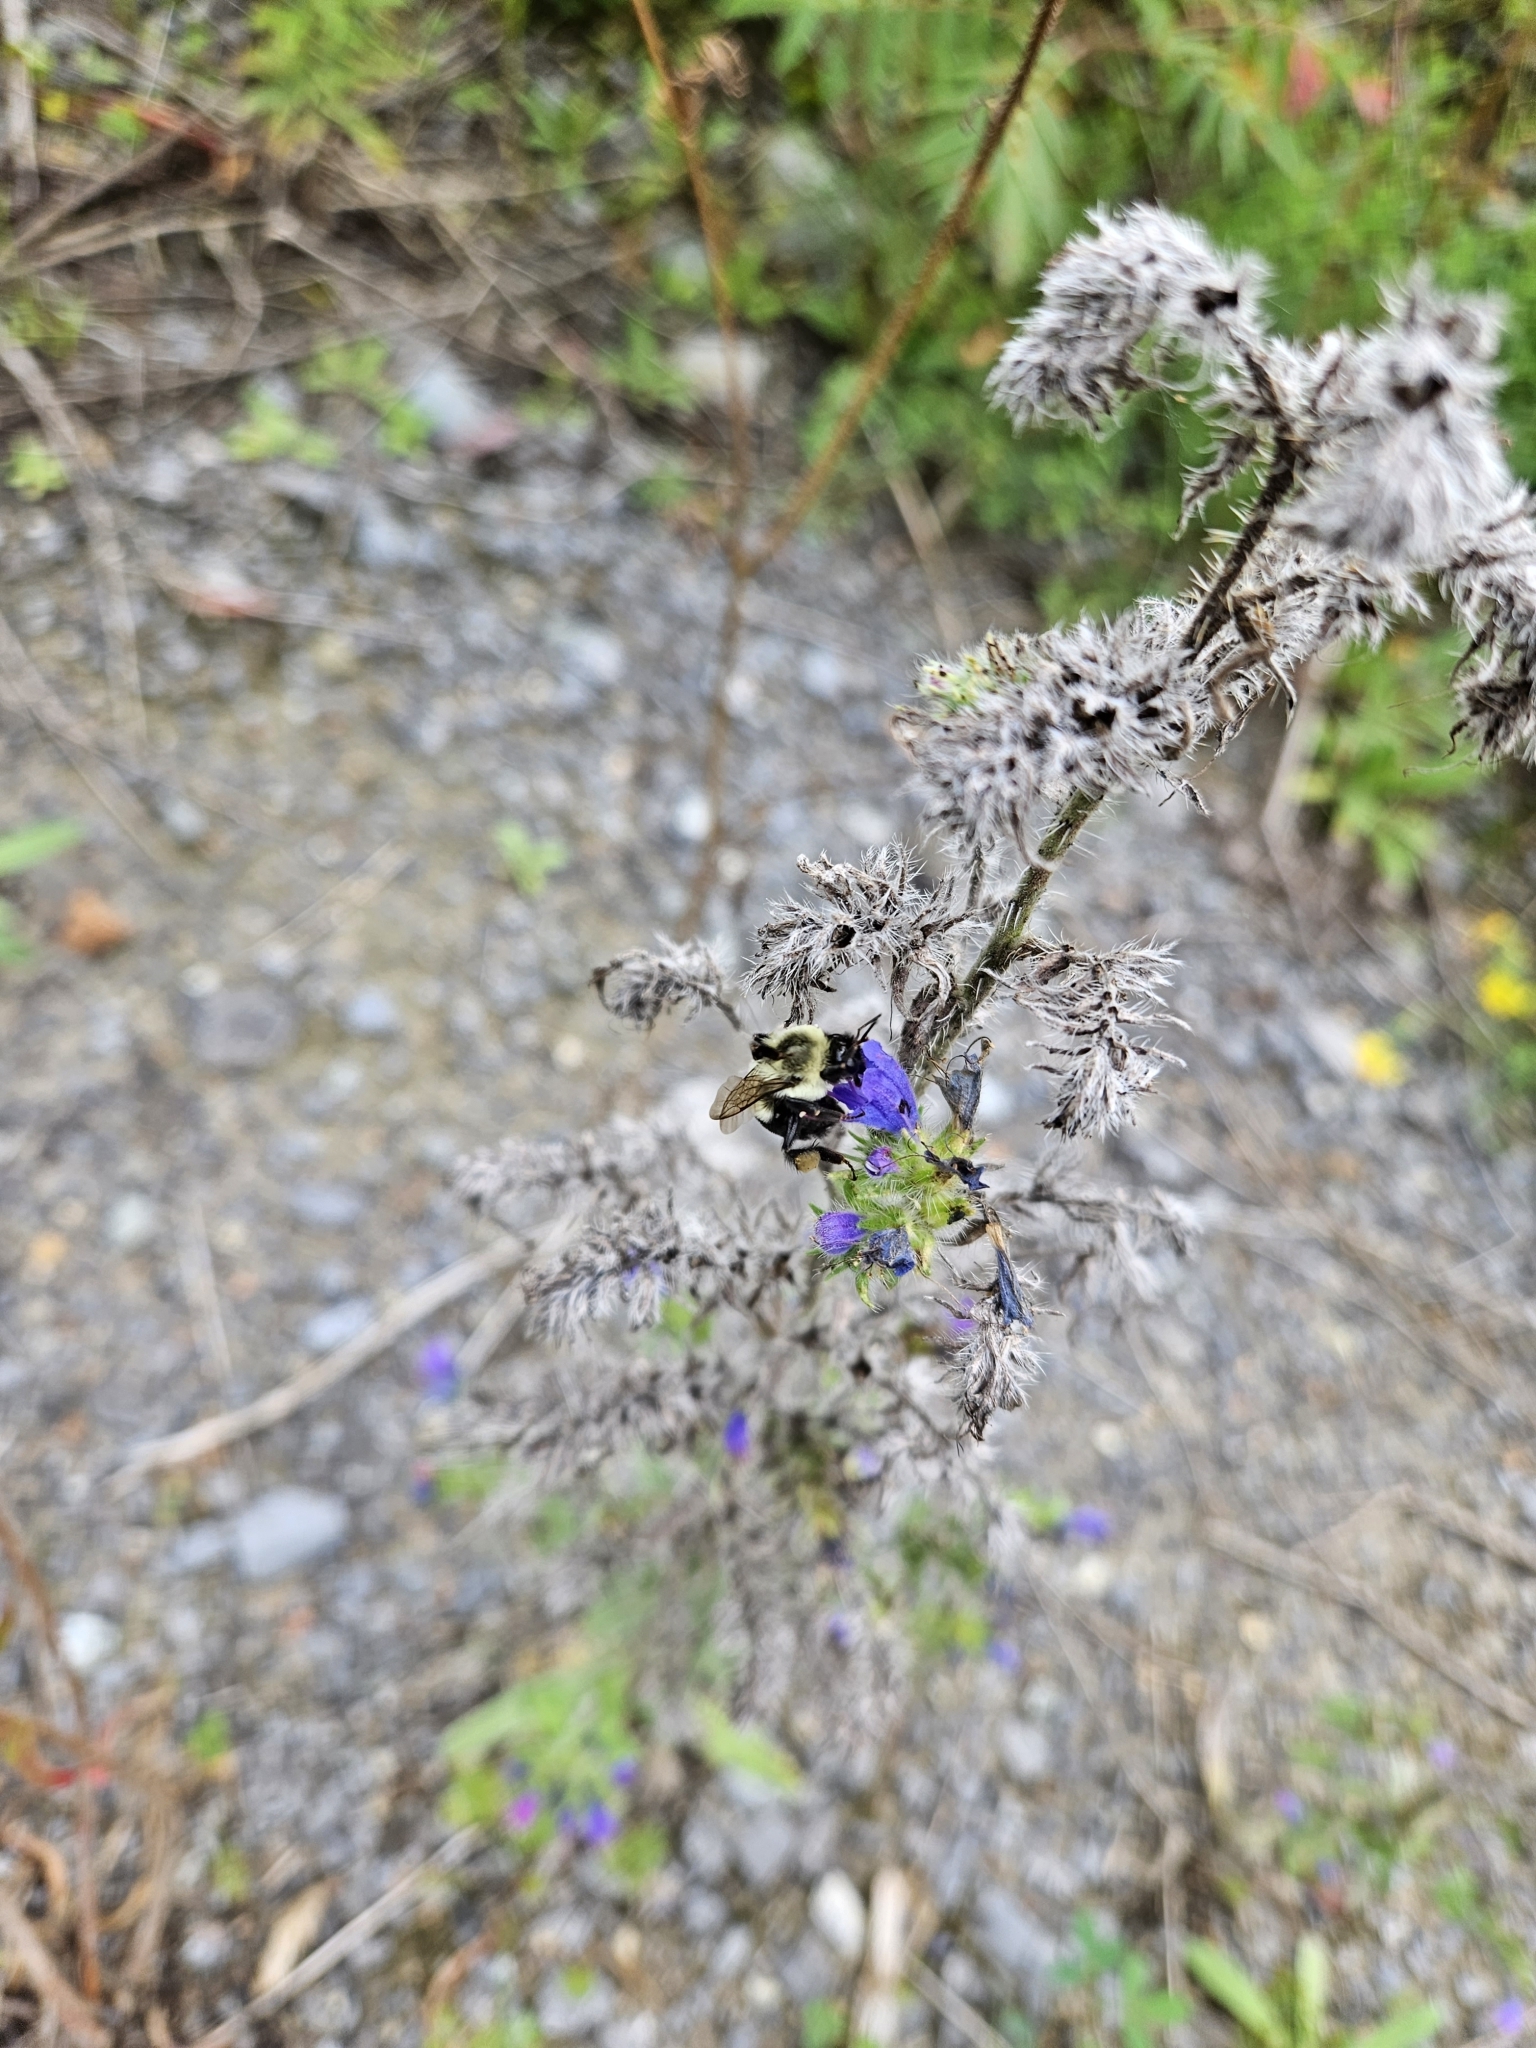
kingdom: Animalia
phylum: Arthropoda
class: Insecta
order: Hymenoptera
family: Apidae
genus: Bombus
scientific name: Bombus impatiens
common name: Common eastern bumble bee
